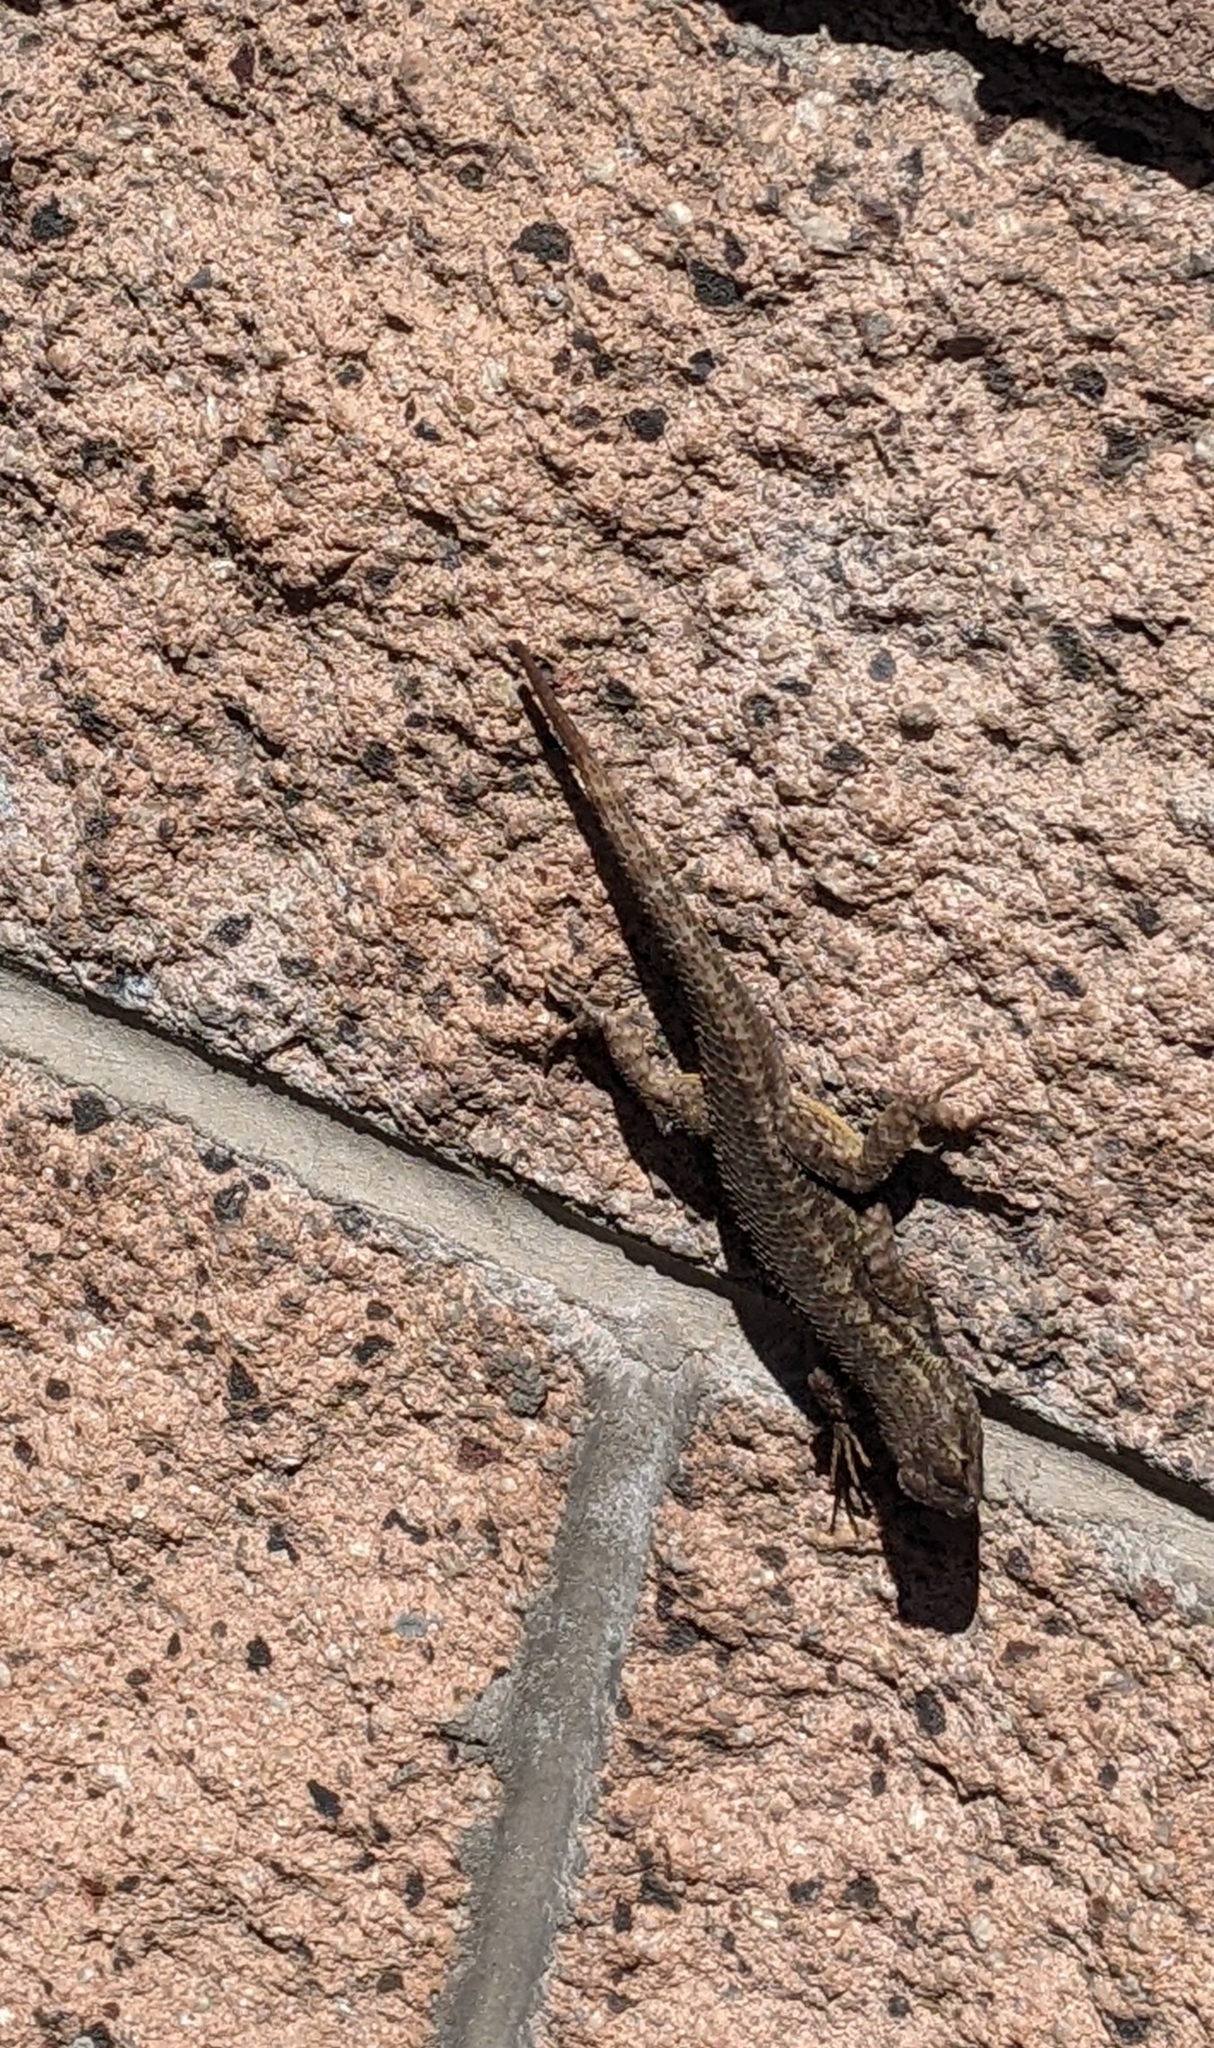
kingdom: Animalia
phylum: Chordata
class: Squamata
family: Phrynosomatidae
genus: Sceloporus
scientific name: Sceloporus occidentalis
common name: Western fence lizard
